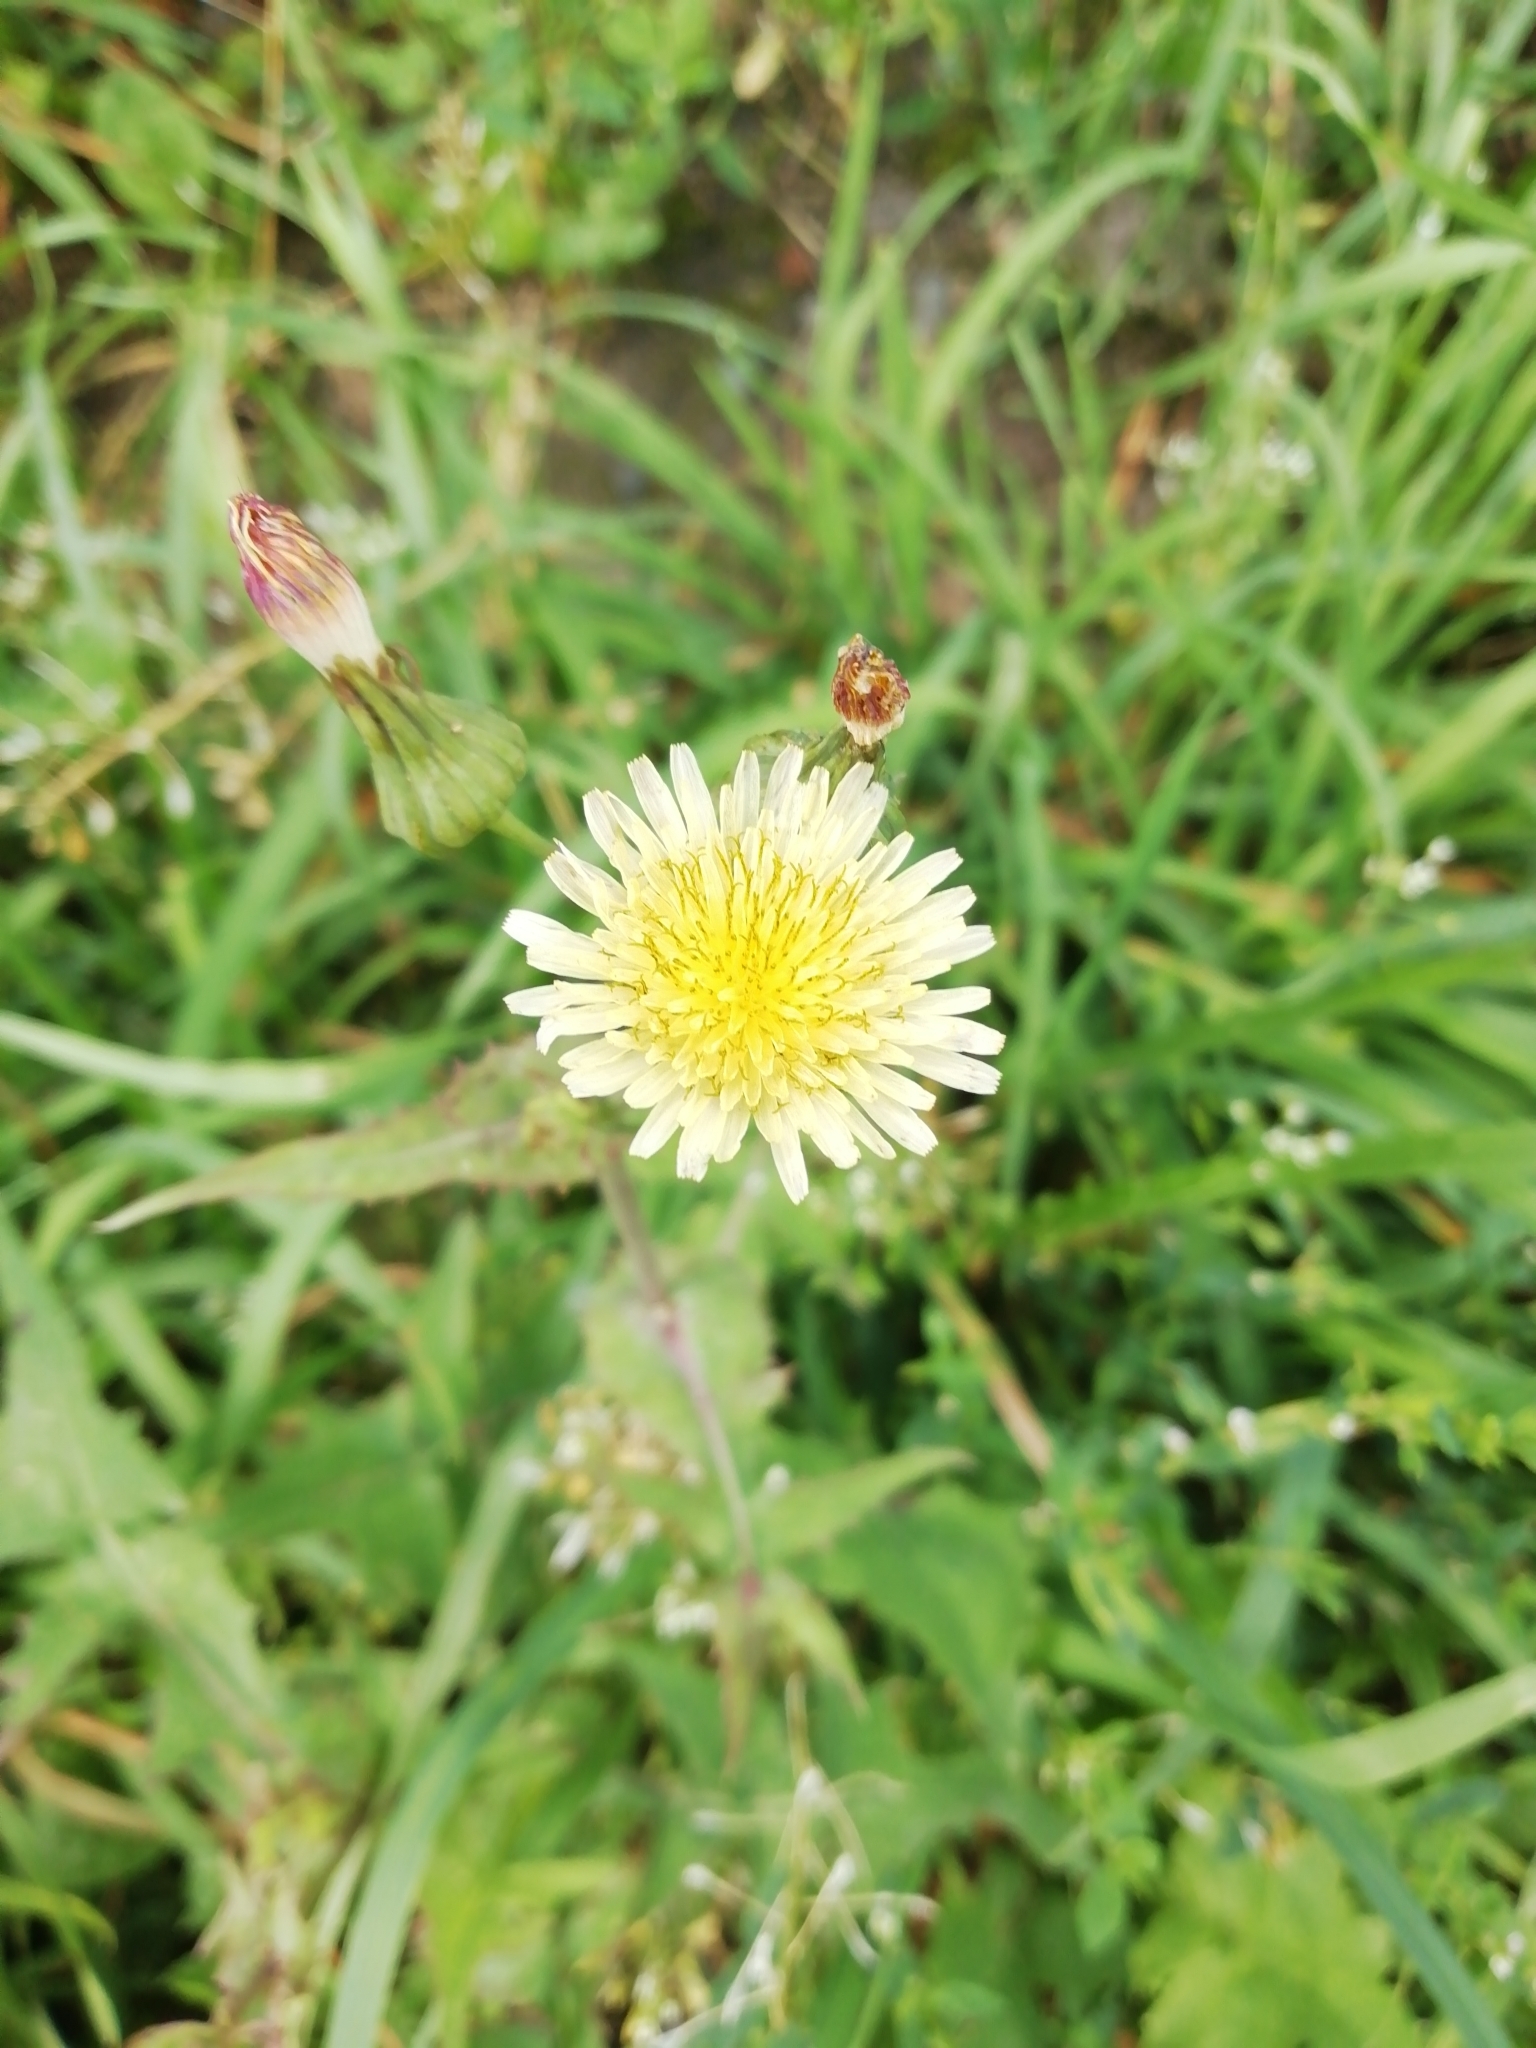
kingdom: Plantae
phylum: Tracheophyta
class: Magnoliopsida
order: Asterales
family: Asteraceae
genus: Sonchus
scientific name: Sonchus oleraceus
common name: Common sowthistle
